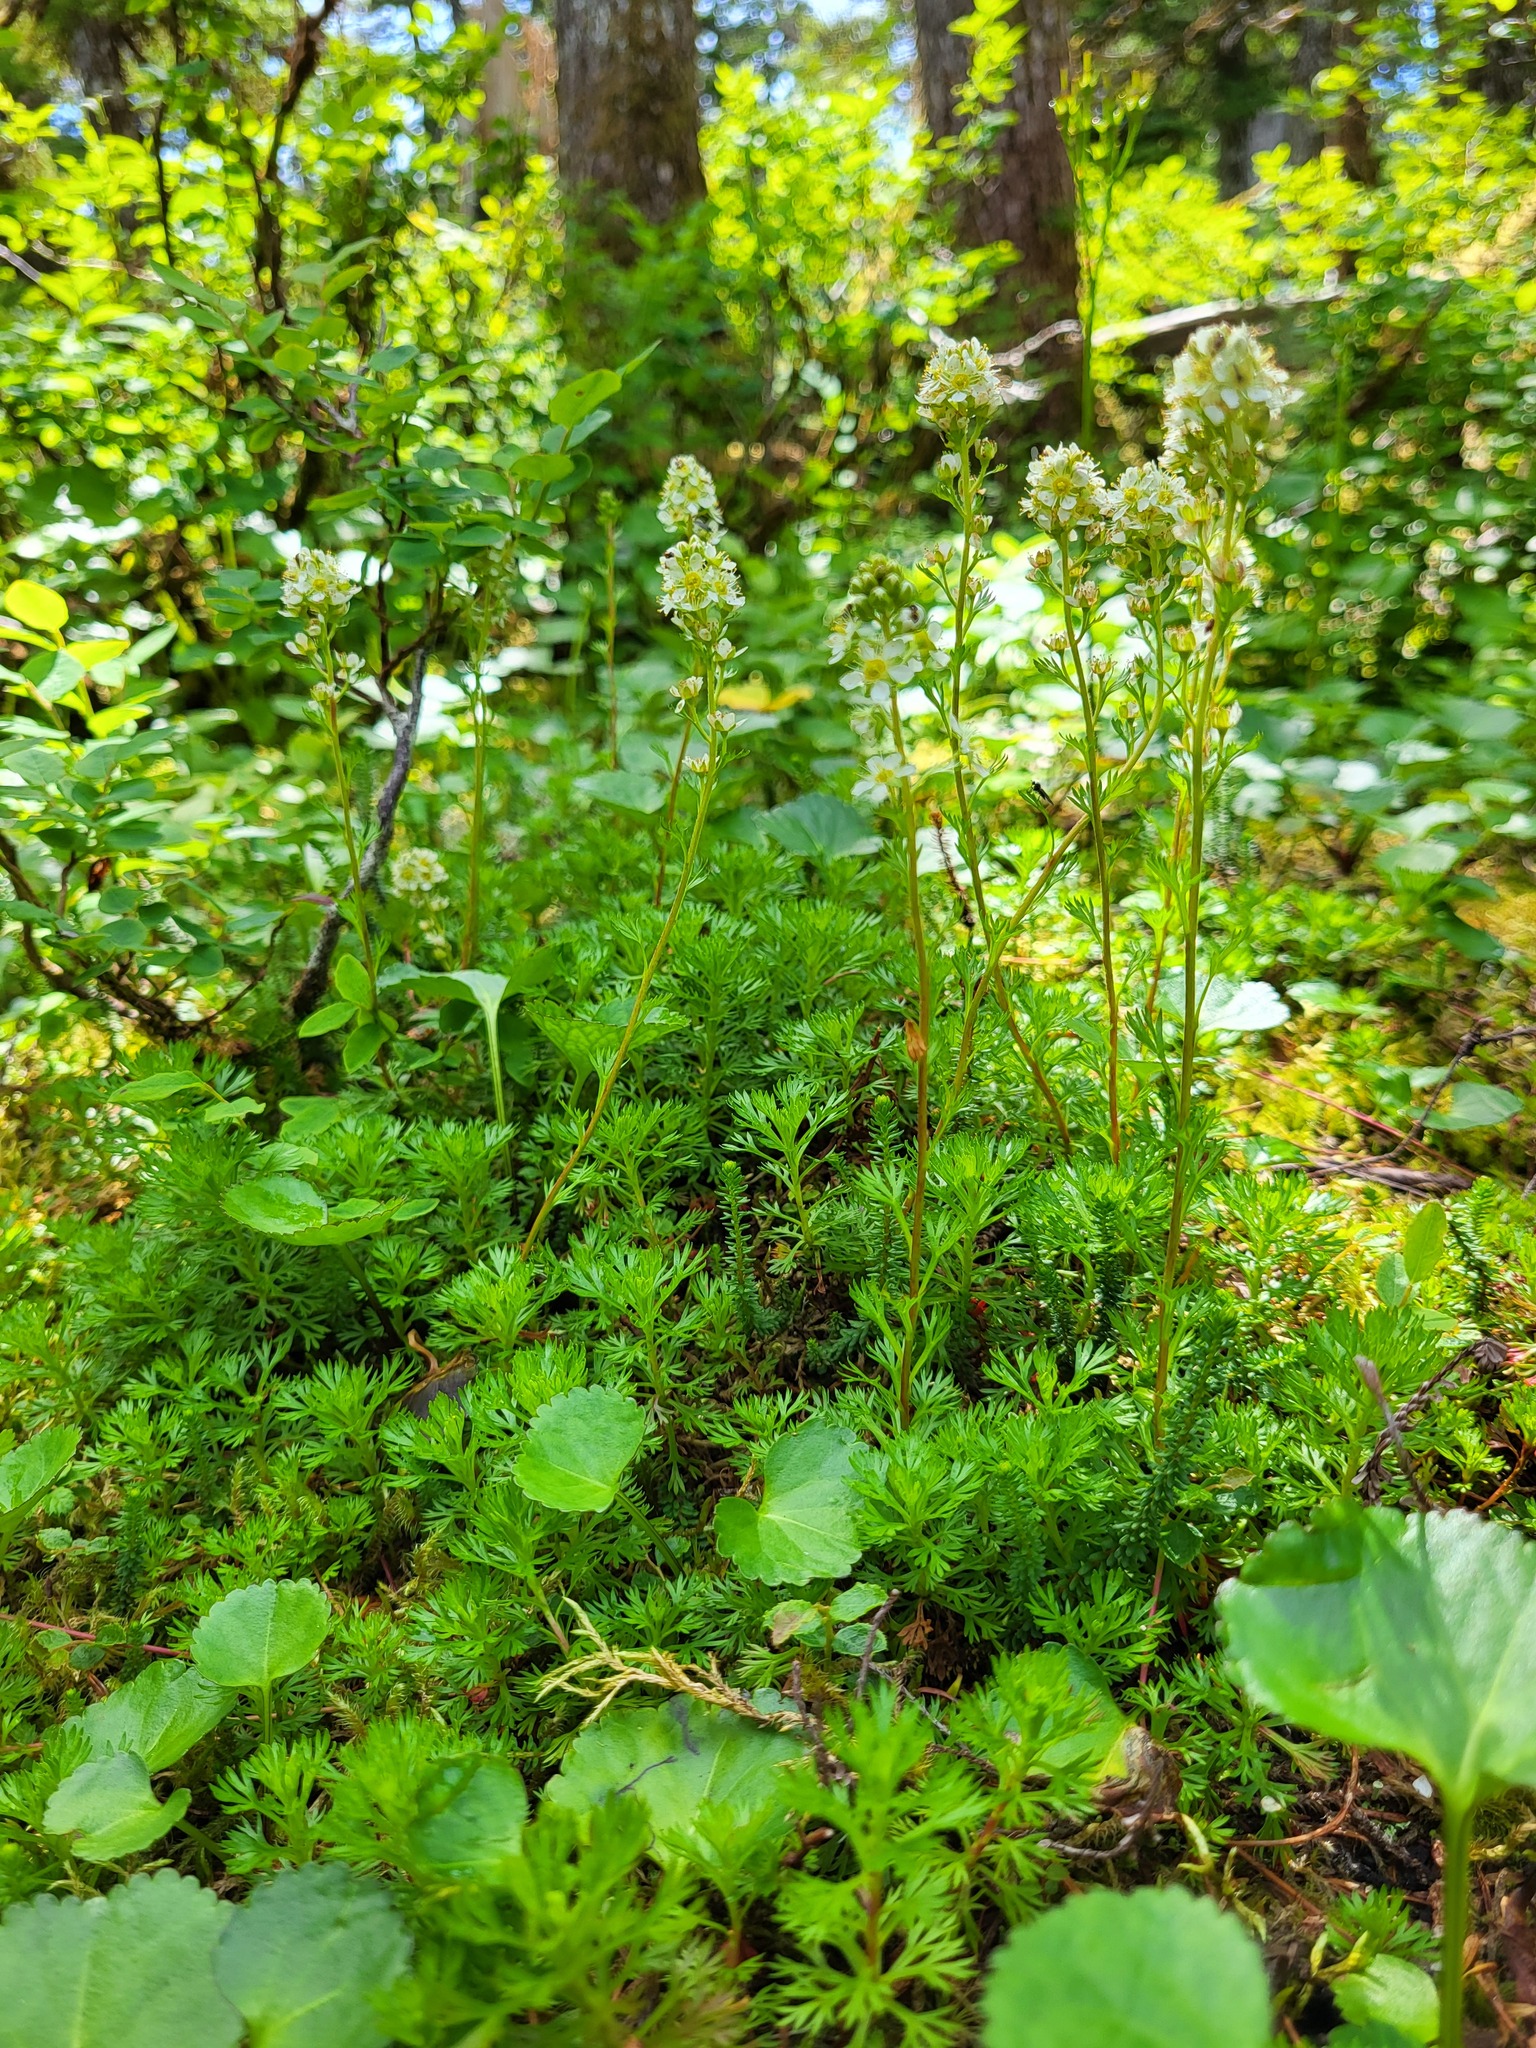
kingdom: Plantae
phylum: Tracheophyta
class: Magnoliopsida
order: Rosales
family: Rosaceae
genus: Luetkea
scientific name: Luetkea pectinata
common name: Partridgefoot
